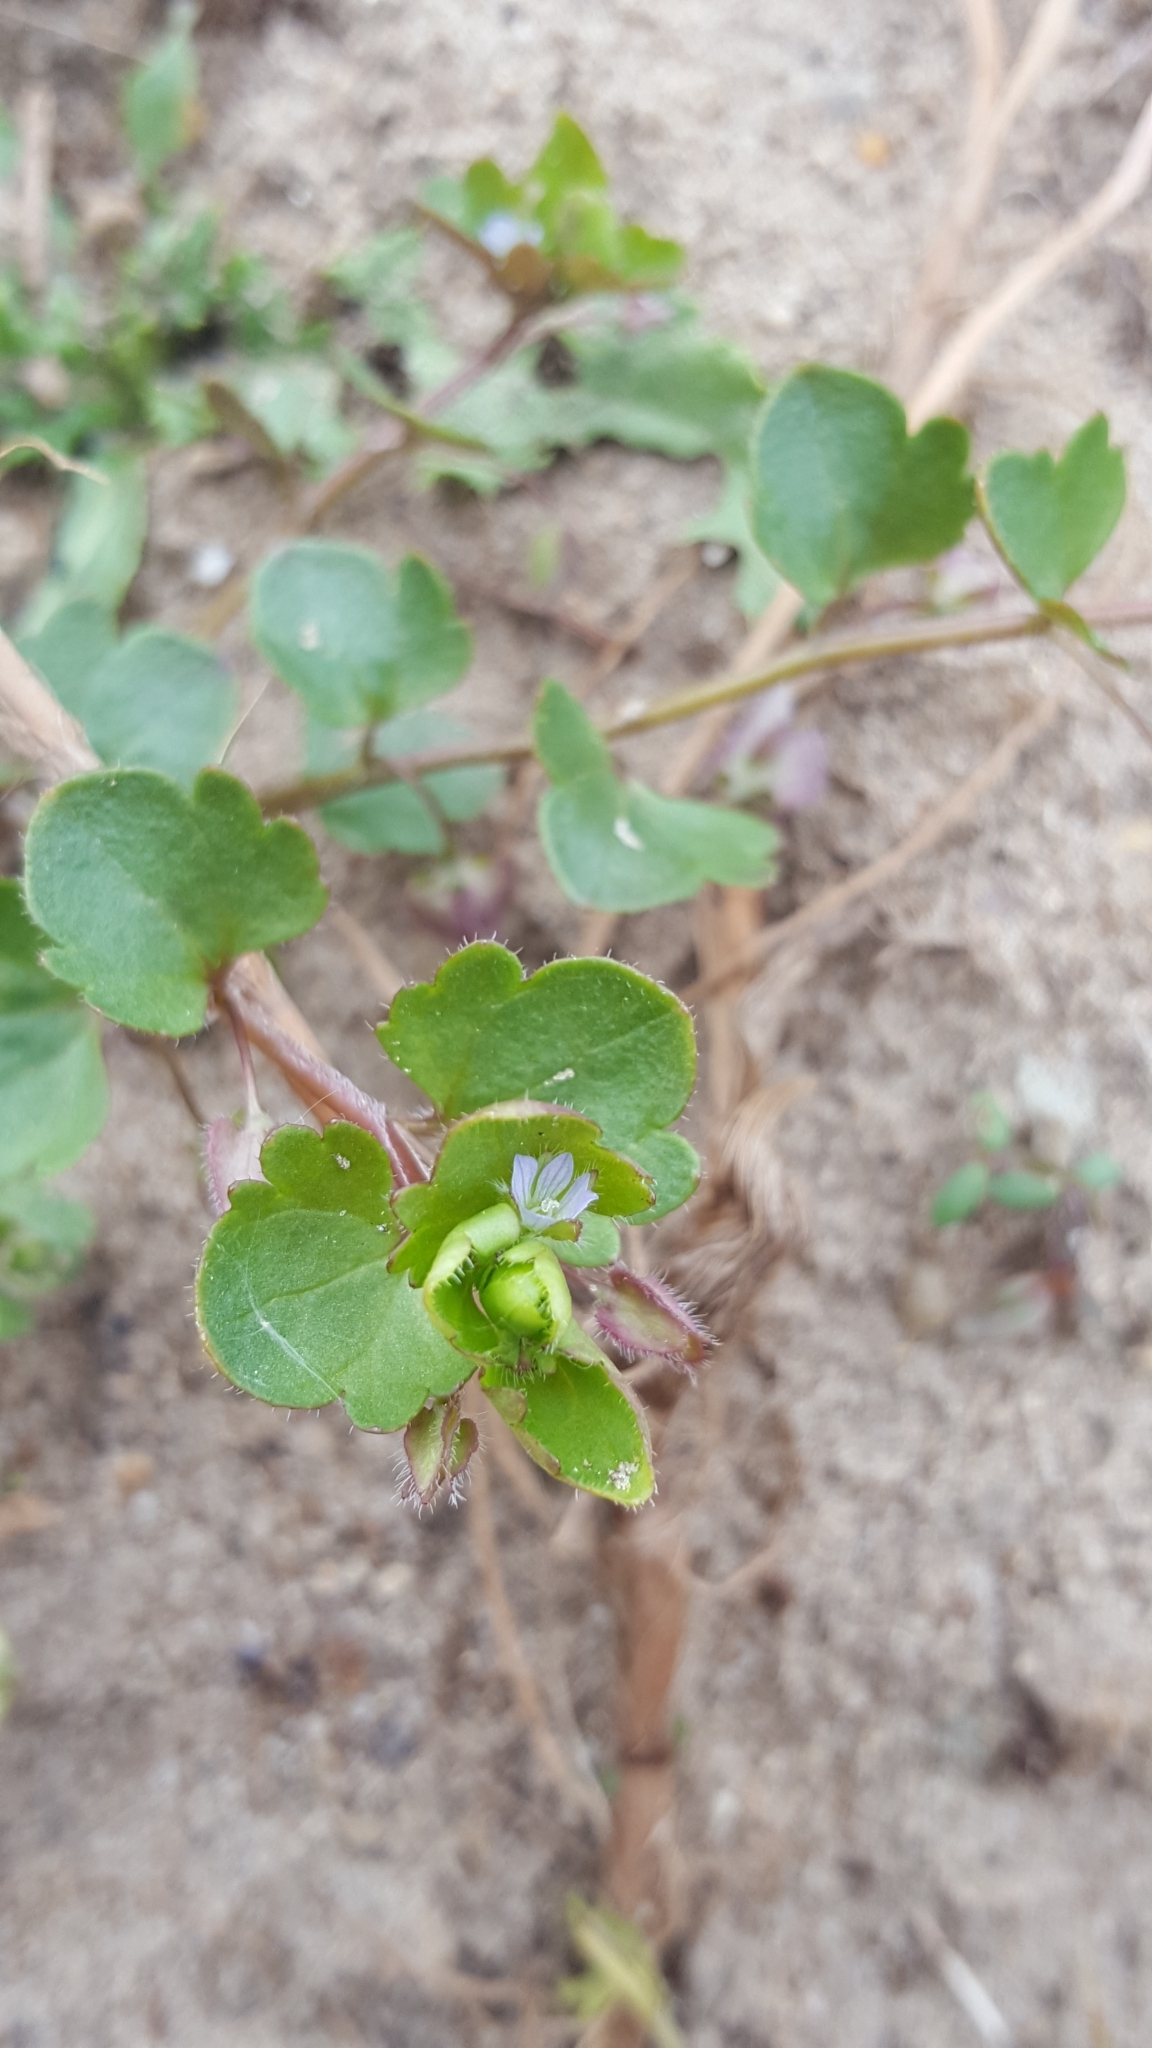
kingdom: Plantae
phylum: Tracheophyta
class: Magnoliopsida
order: Lamiales
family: Plantaginaceae
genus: Veronica
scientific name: Veronica hederifolia
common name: Ivy-leaved speedwell
